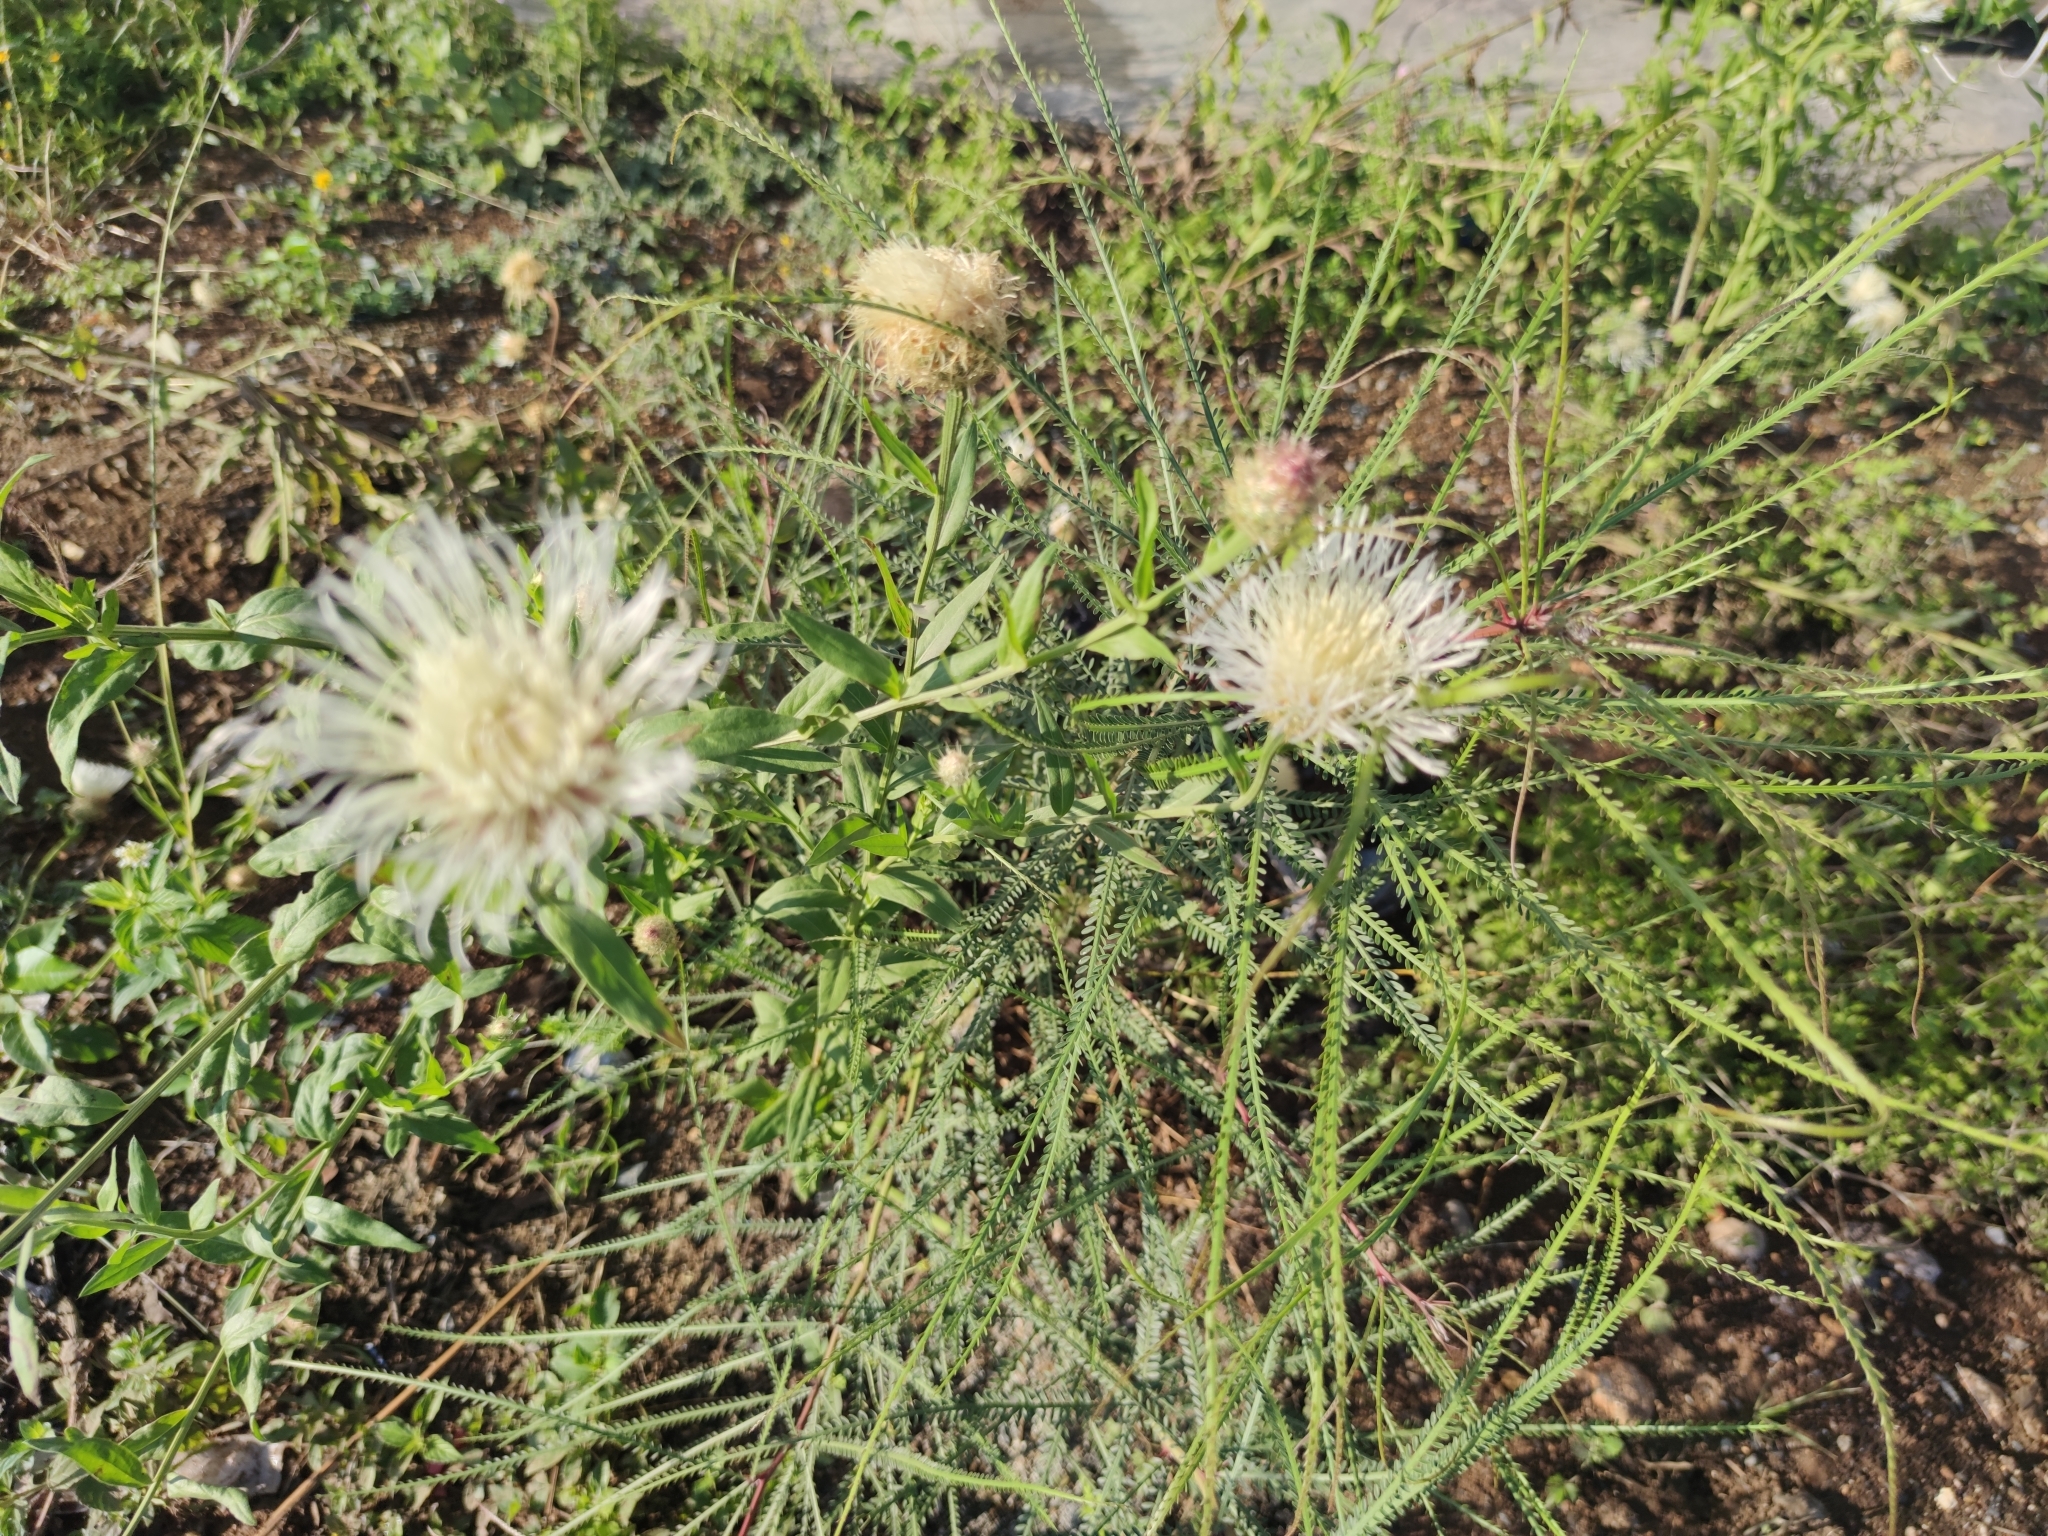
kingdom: Plantae
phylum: Tracheophyta
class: Magnoliopsida
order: Asterales
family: Asteraceae
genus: Plectocephalus
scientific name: Plectocephalus americanus
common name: American basket-flower
